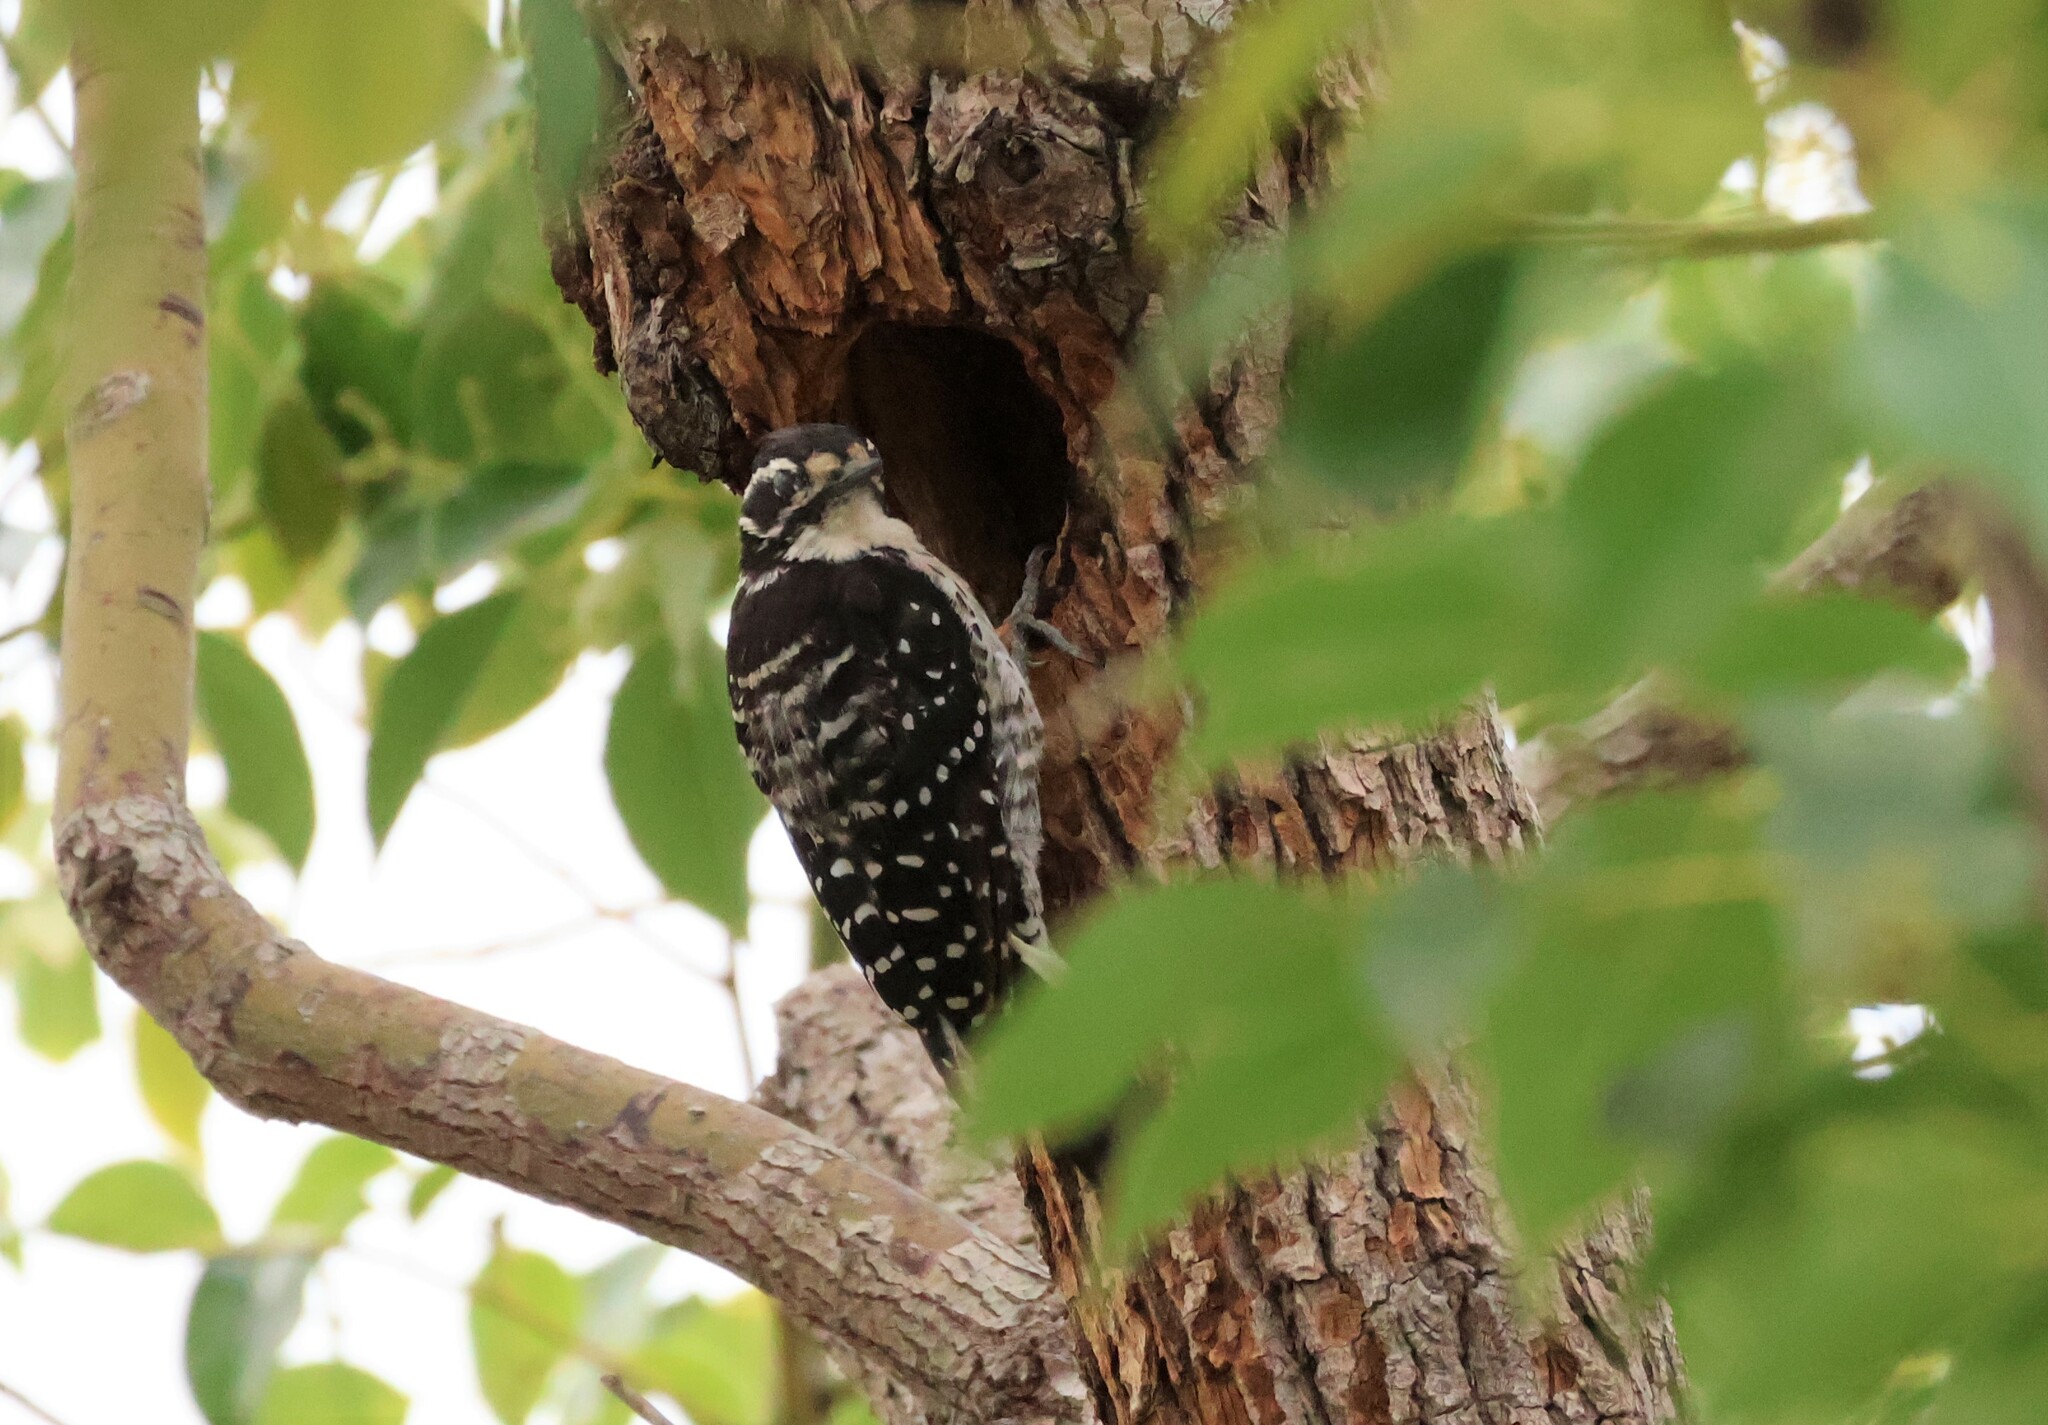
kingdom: Animalia
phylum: Chordata
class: Aves
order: Piciformes
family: Picidae
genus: Dryobates
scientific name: Dryobates nuttallii
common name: Nuttall's woodpecker
